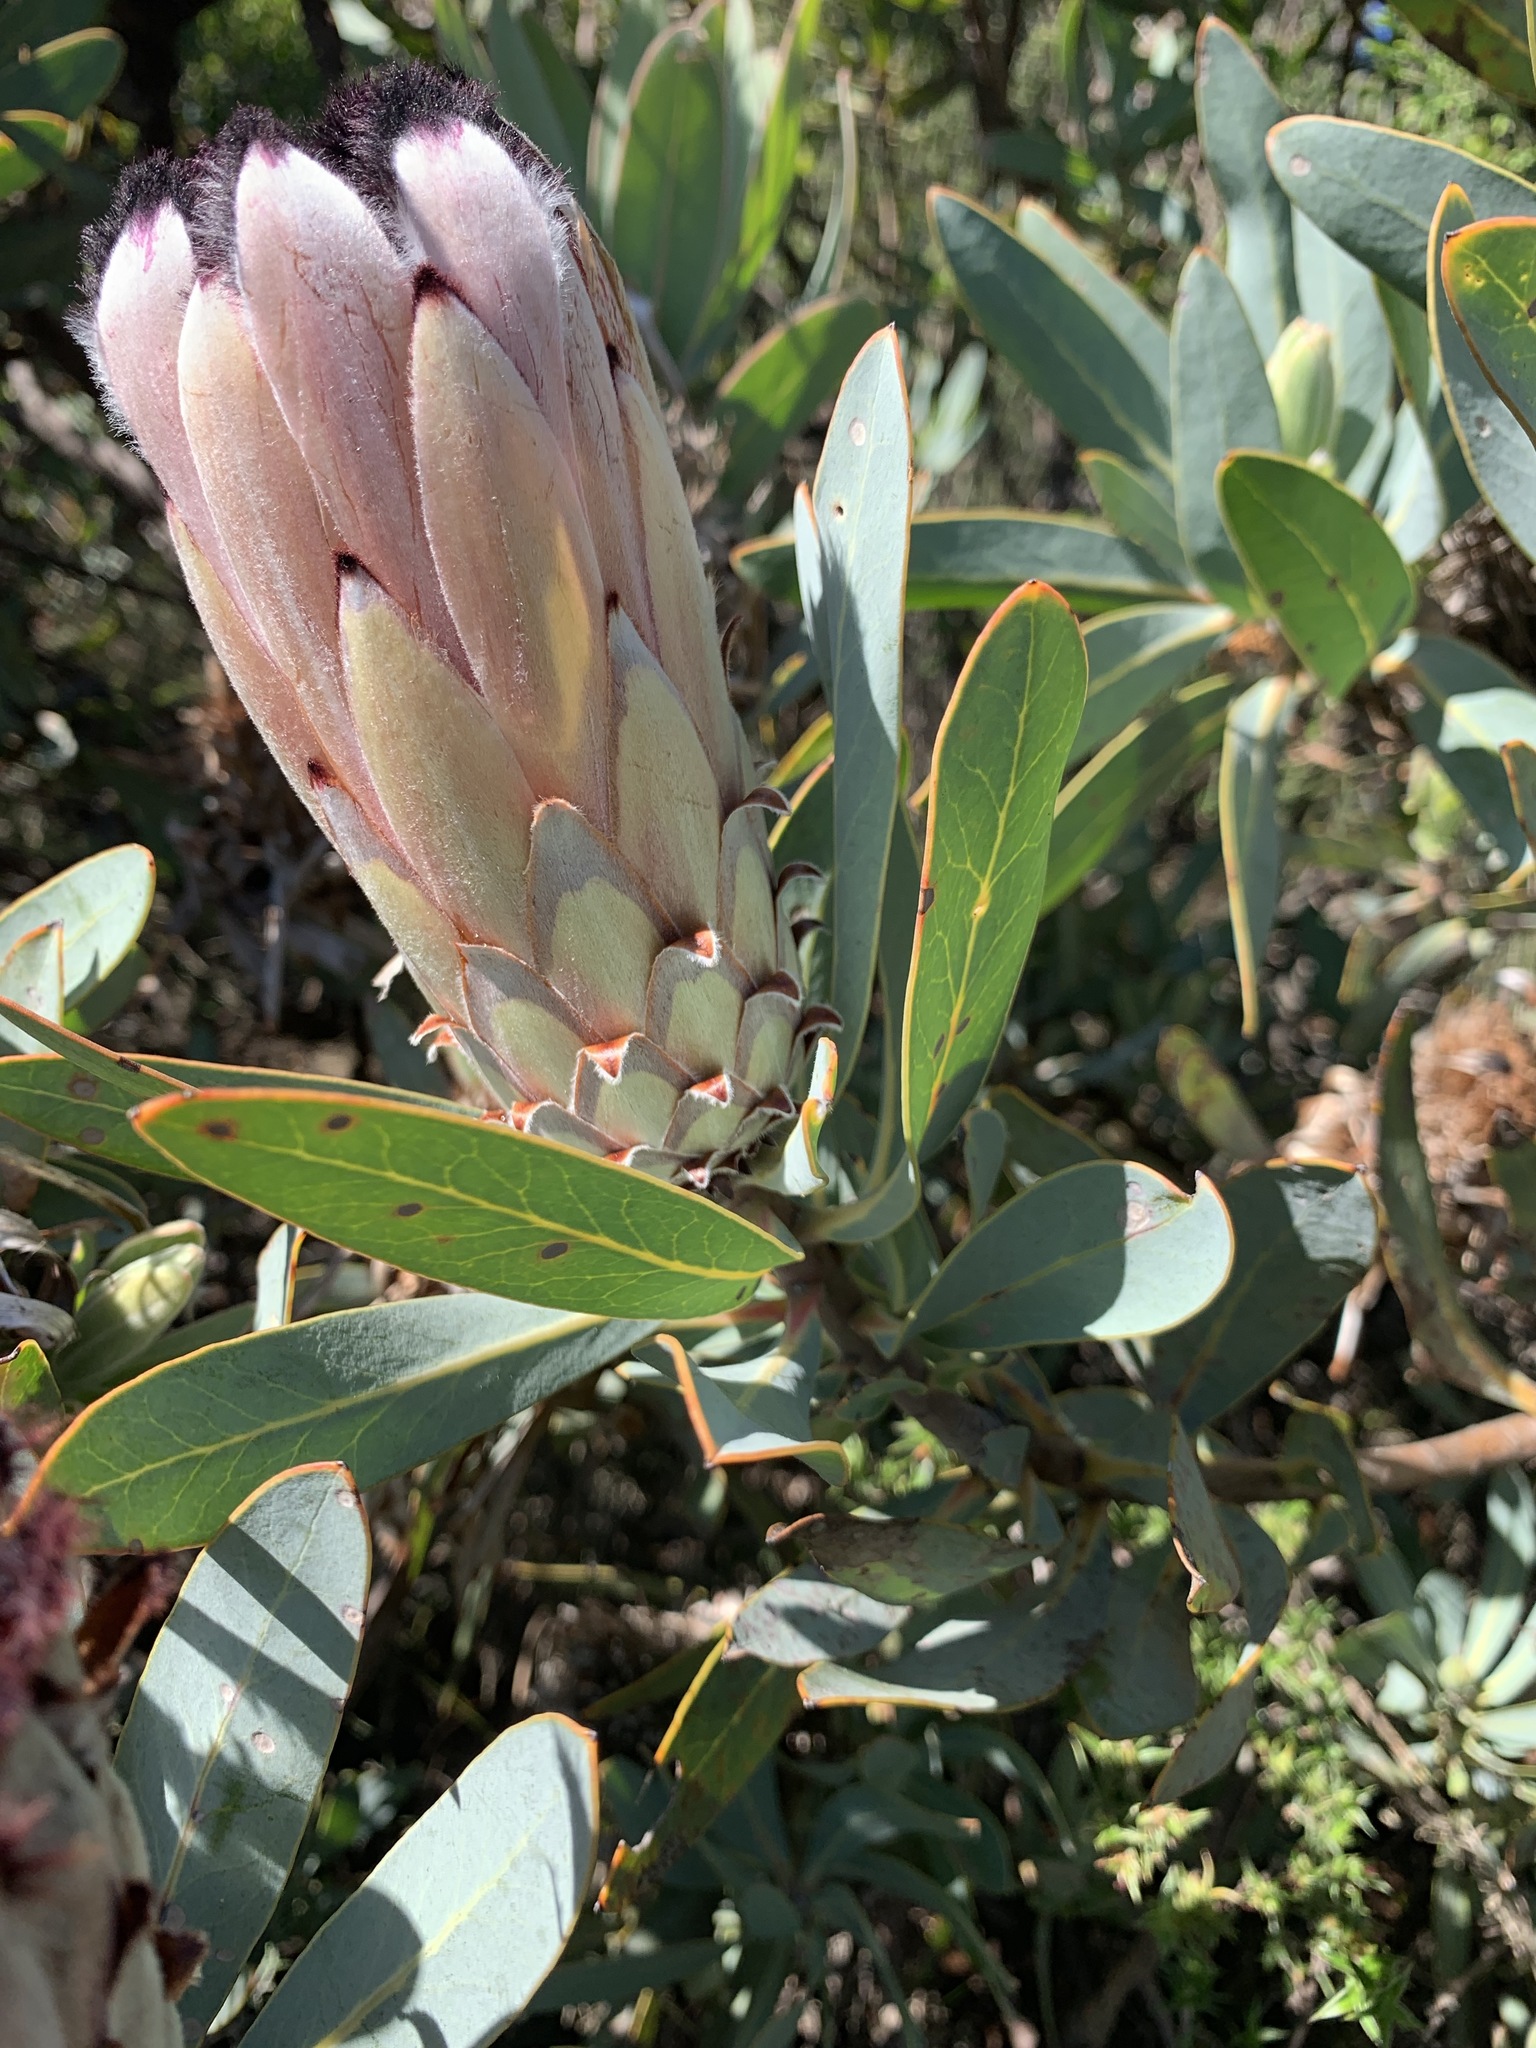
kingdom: Plantae
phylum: Tracheophyta
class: Magnoliopsida
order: Proteales
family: Proteaceae
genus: Protea
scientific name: Protea laurifolia
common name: Grey-leaf sugarbsh
